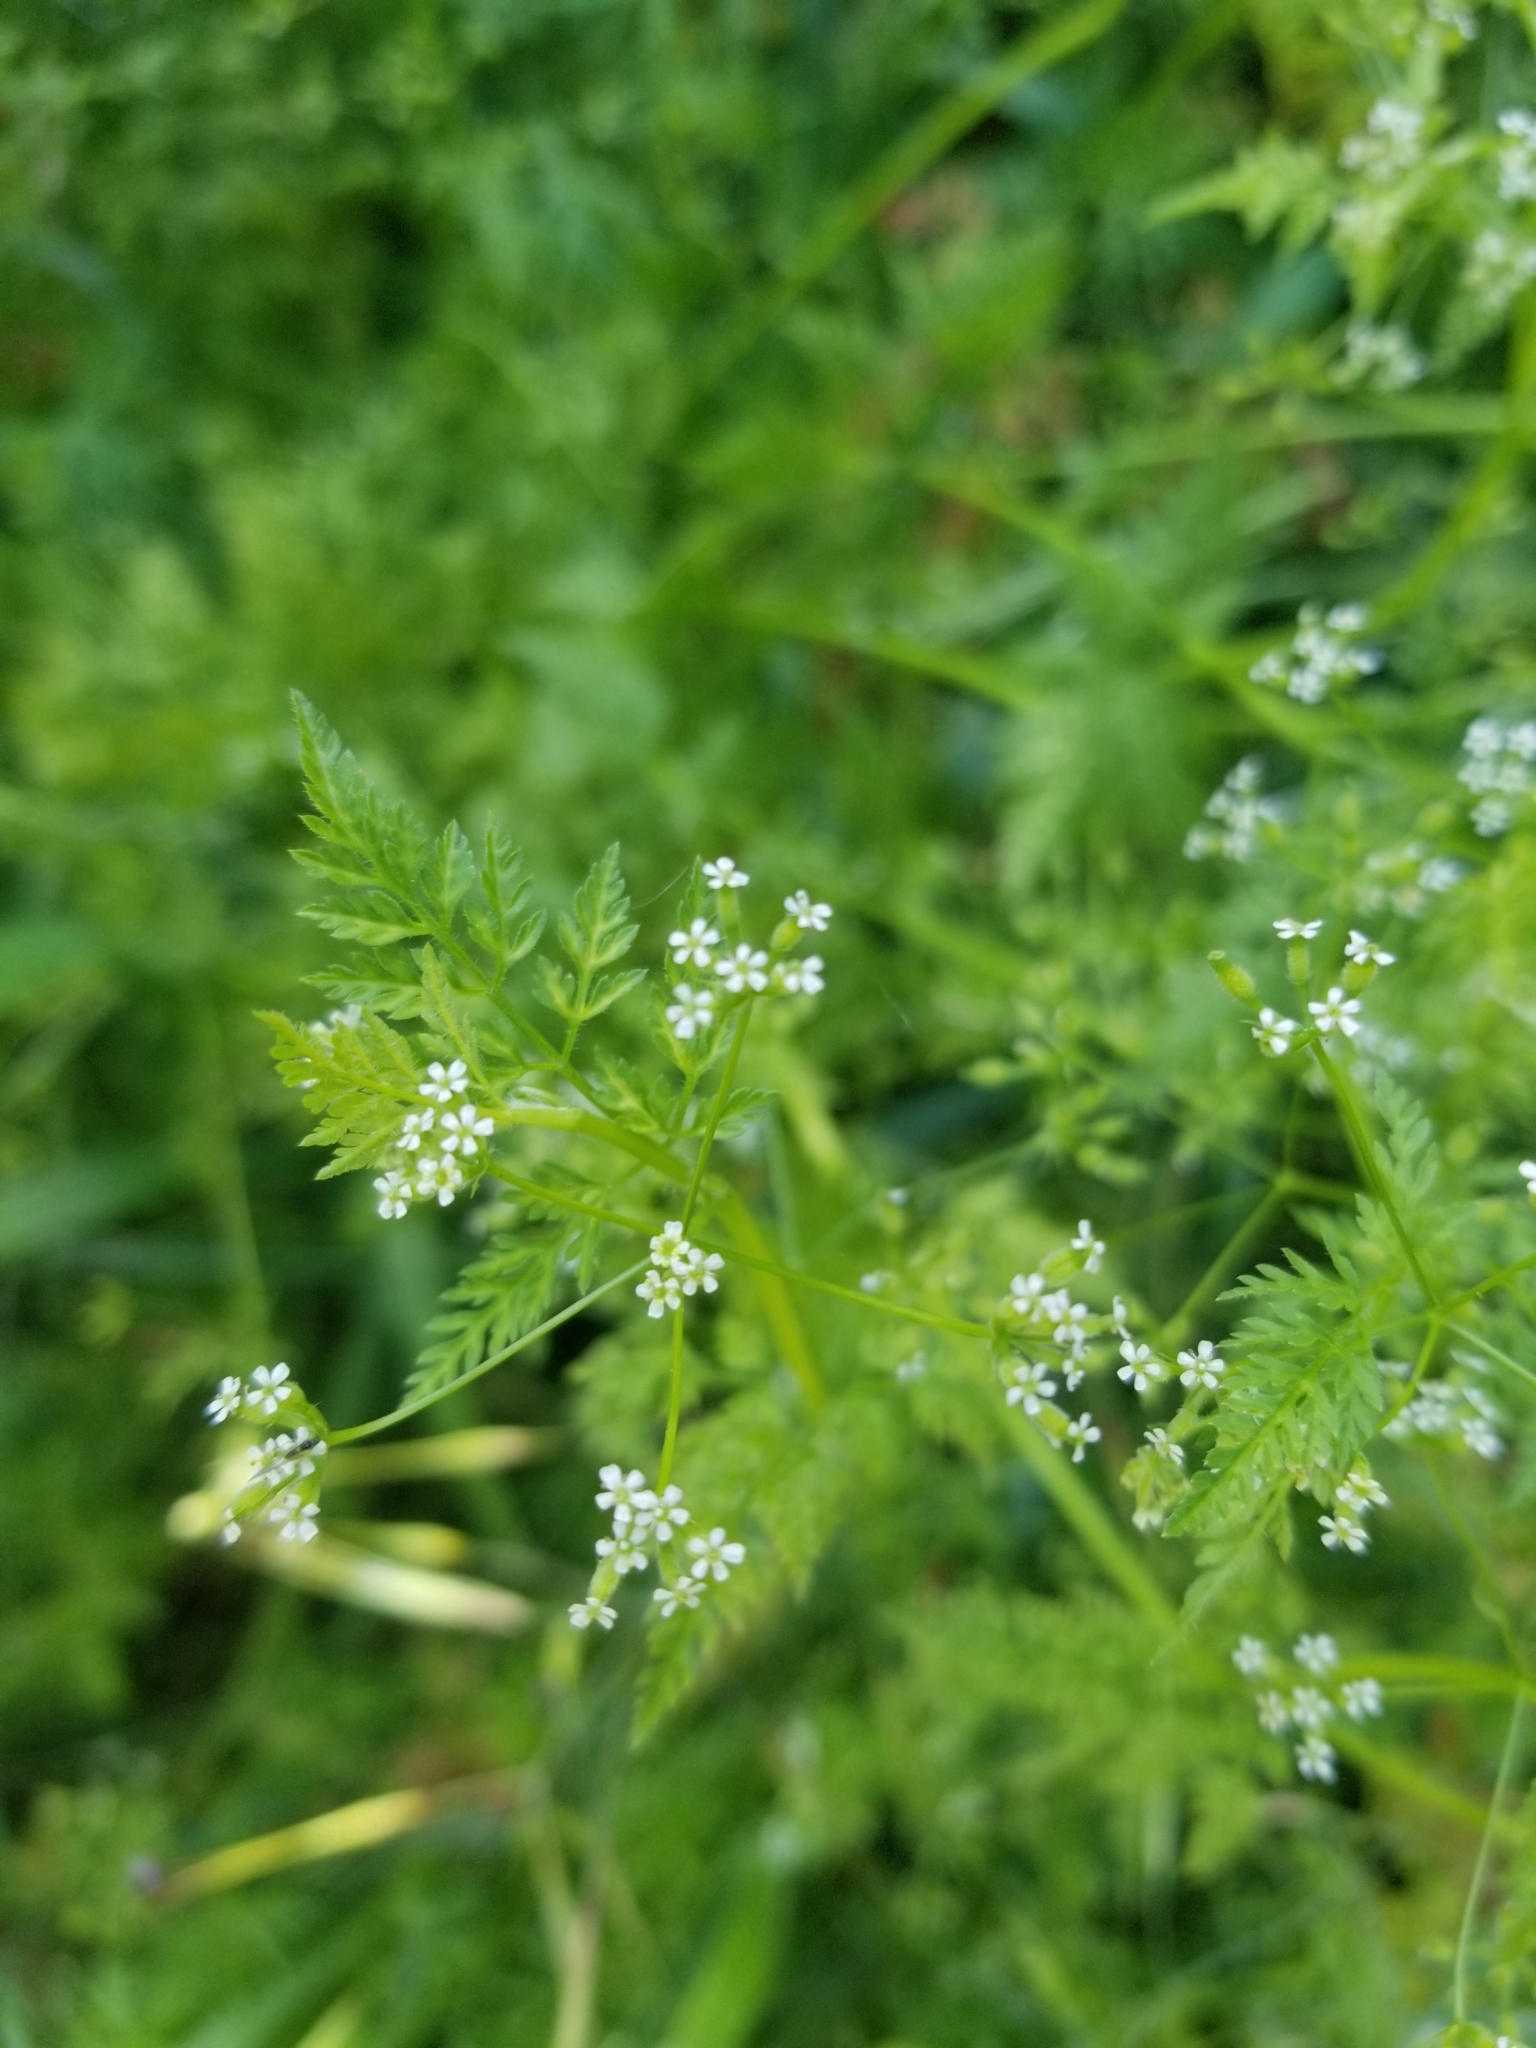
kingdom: Plantae
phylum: Tracheophyta
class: Magnoliopsida
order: Apiales
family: Apiaceae
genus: Anthriscus
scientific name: Anthriscus caucalis
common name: Bur chervil
